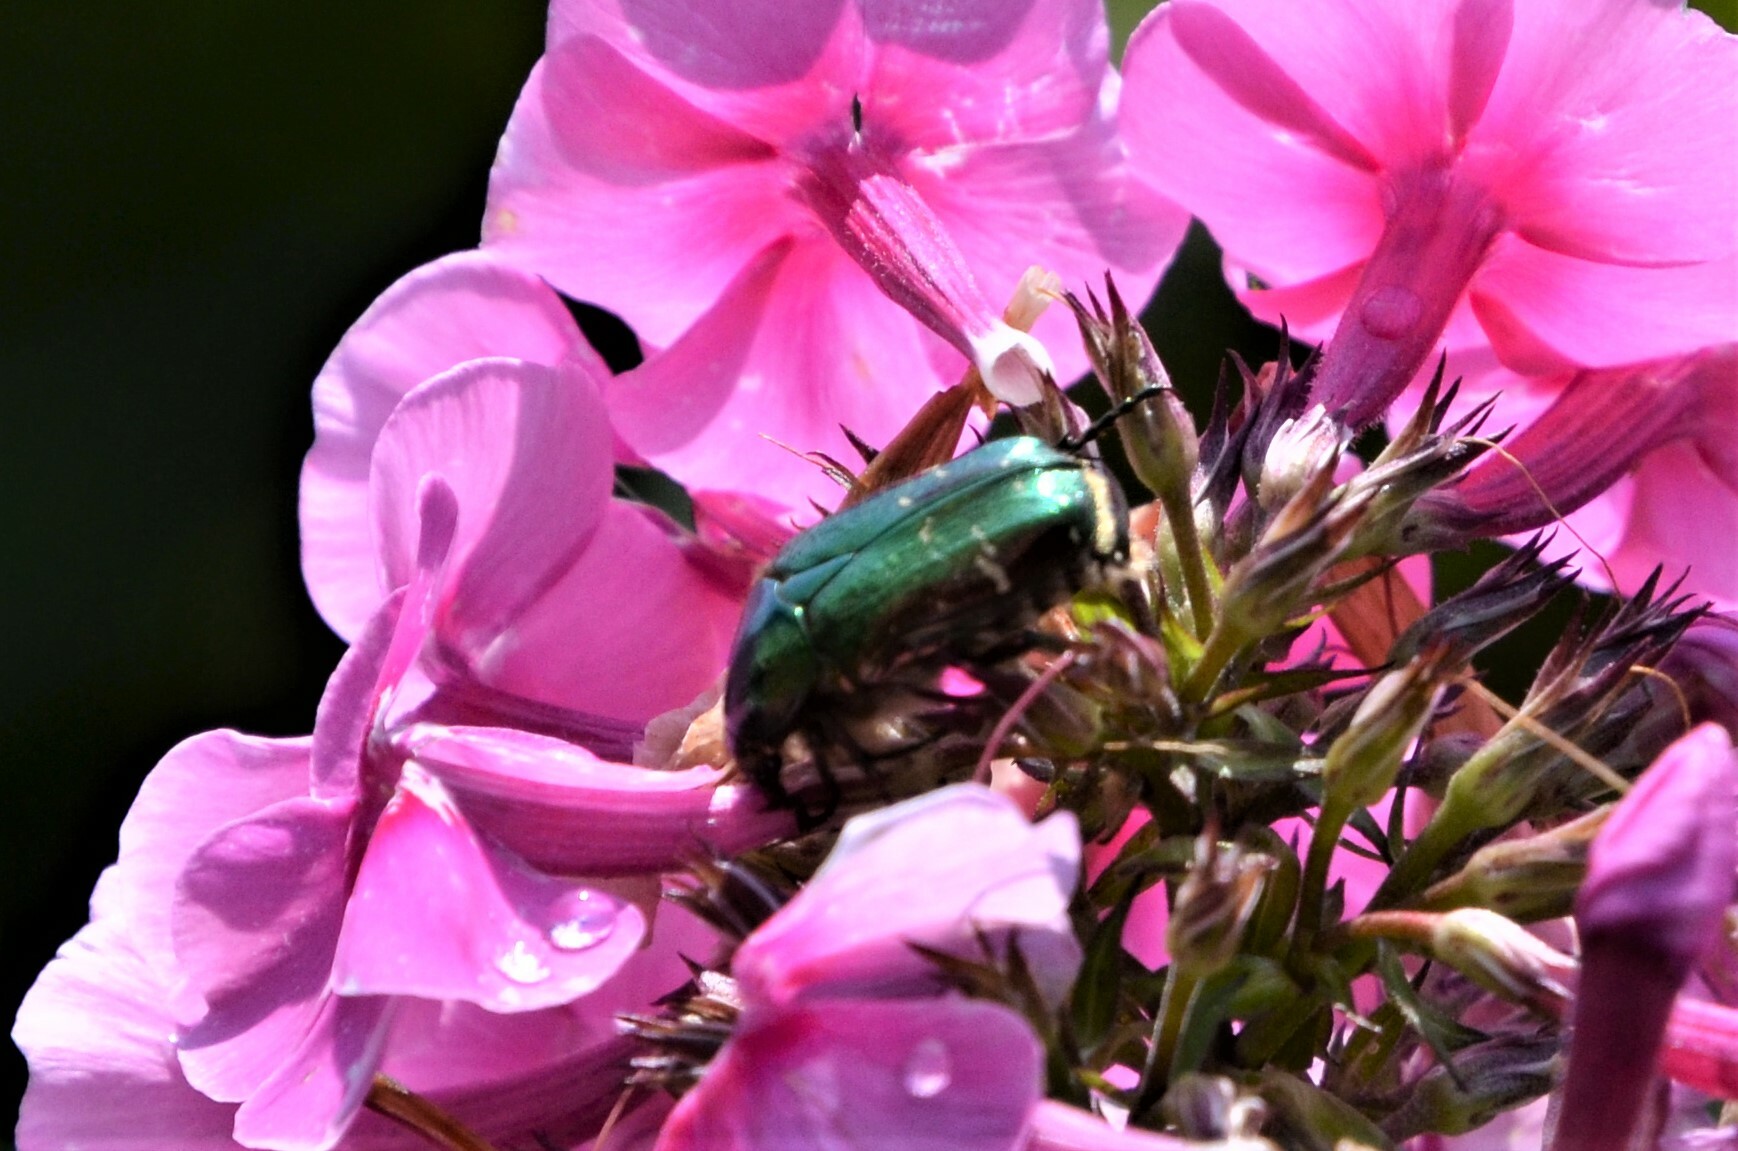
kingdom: Animalia
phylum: Arthropoda
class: Insecta
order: Coleoptera
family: Scarabaeidae
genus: Cetonia
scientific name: Cetonia aurata
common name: Rose chafer
